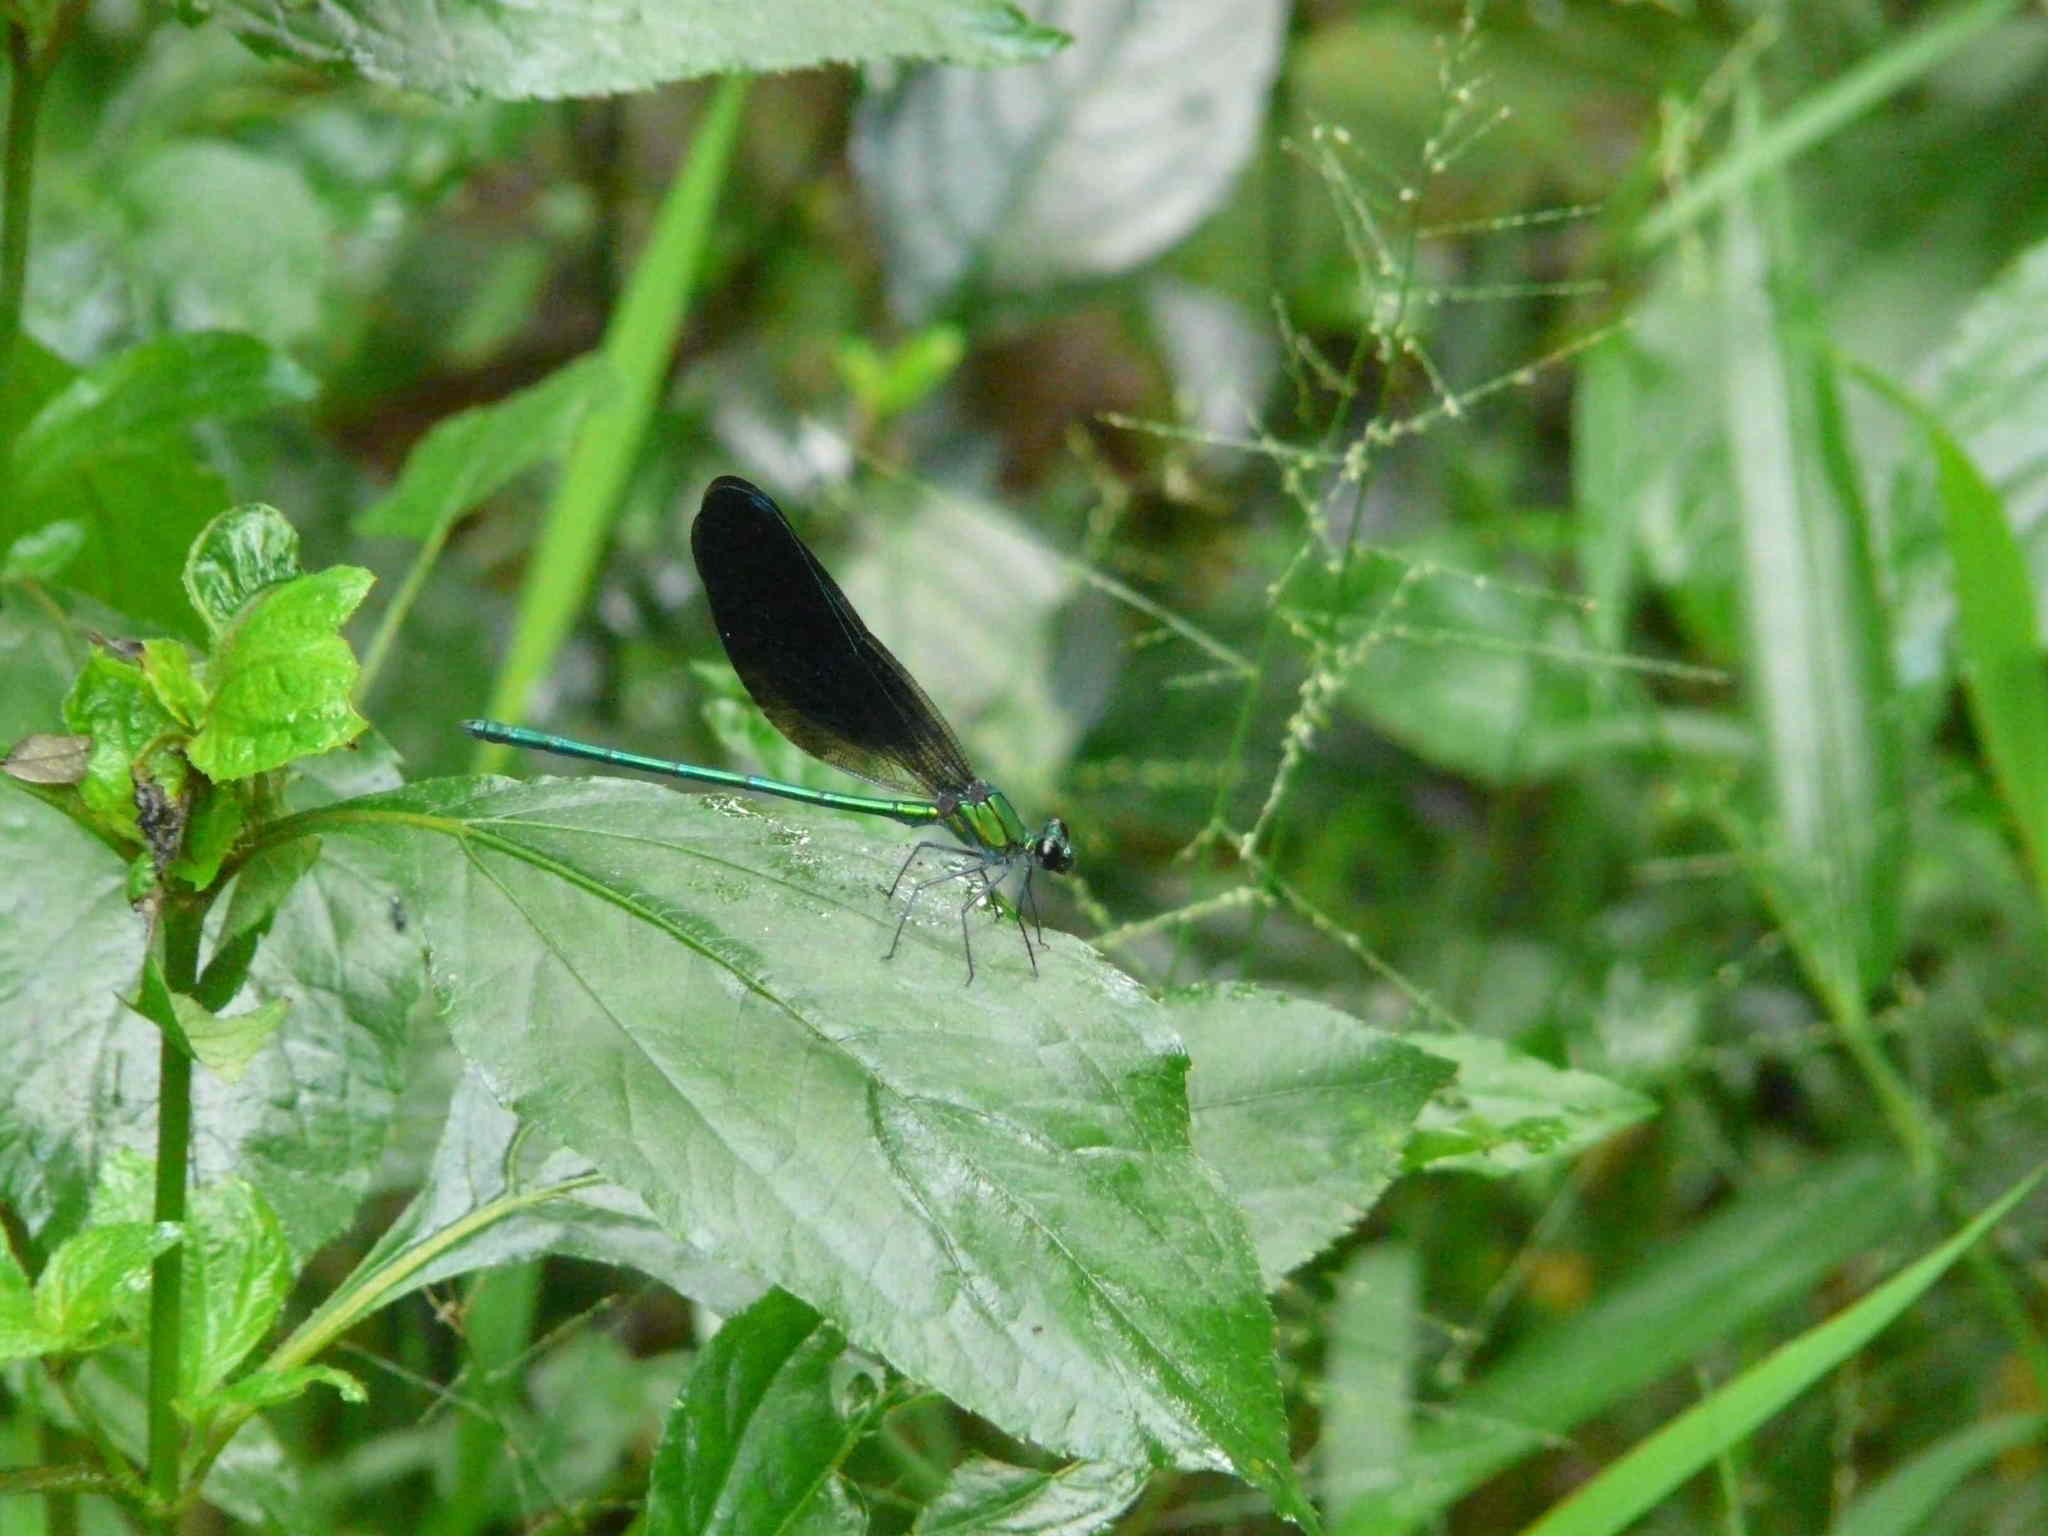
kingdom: Animalia
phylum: Arthropoda
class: Insecta
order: Odonata
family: Calopterygidae
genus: Sapho
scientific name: Sapho ciliata
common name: Western bluewing
